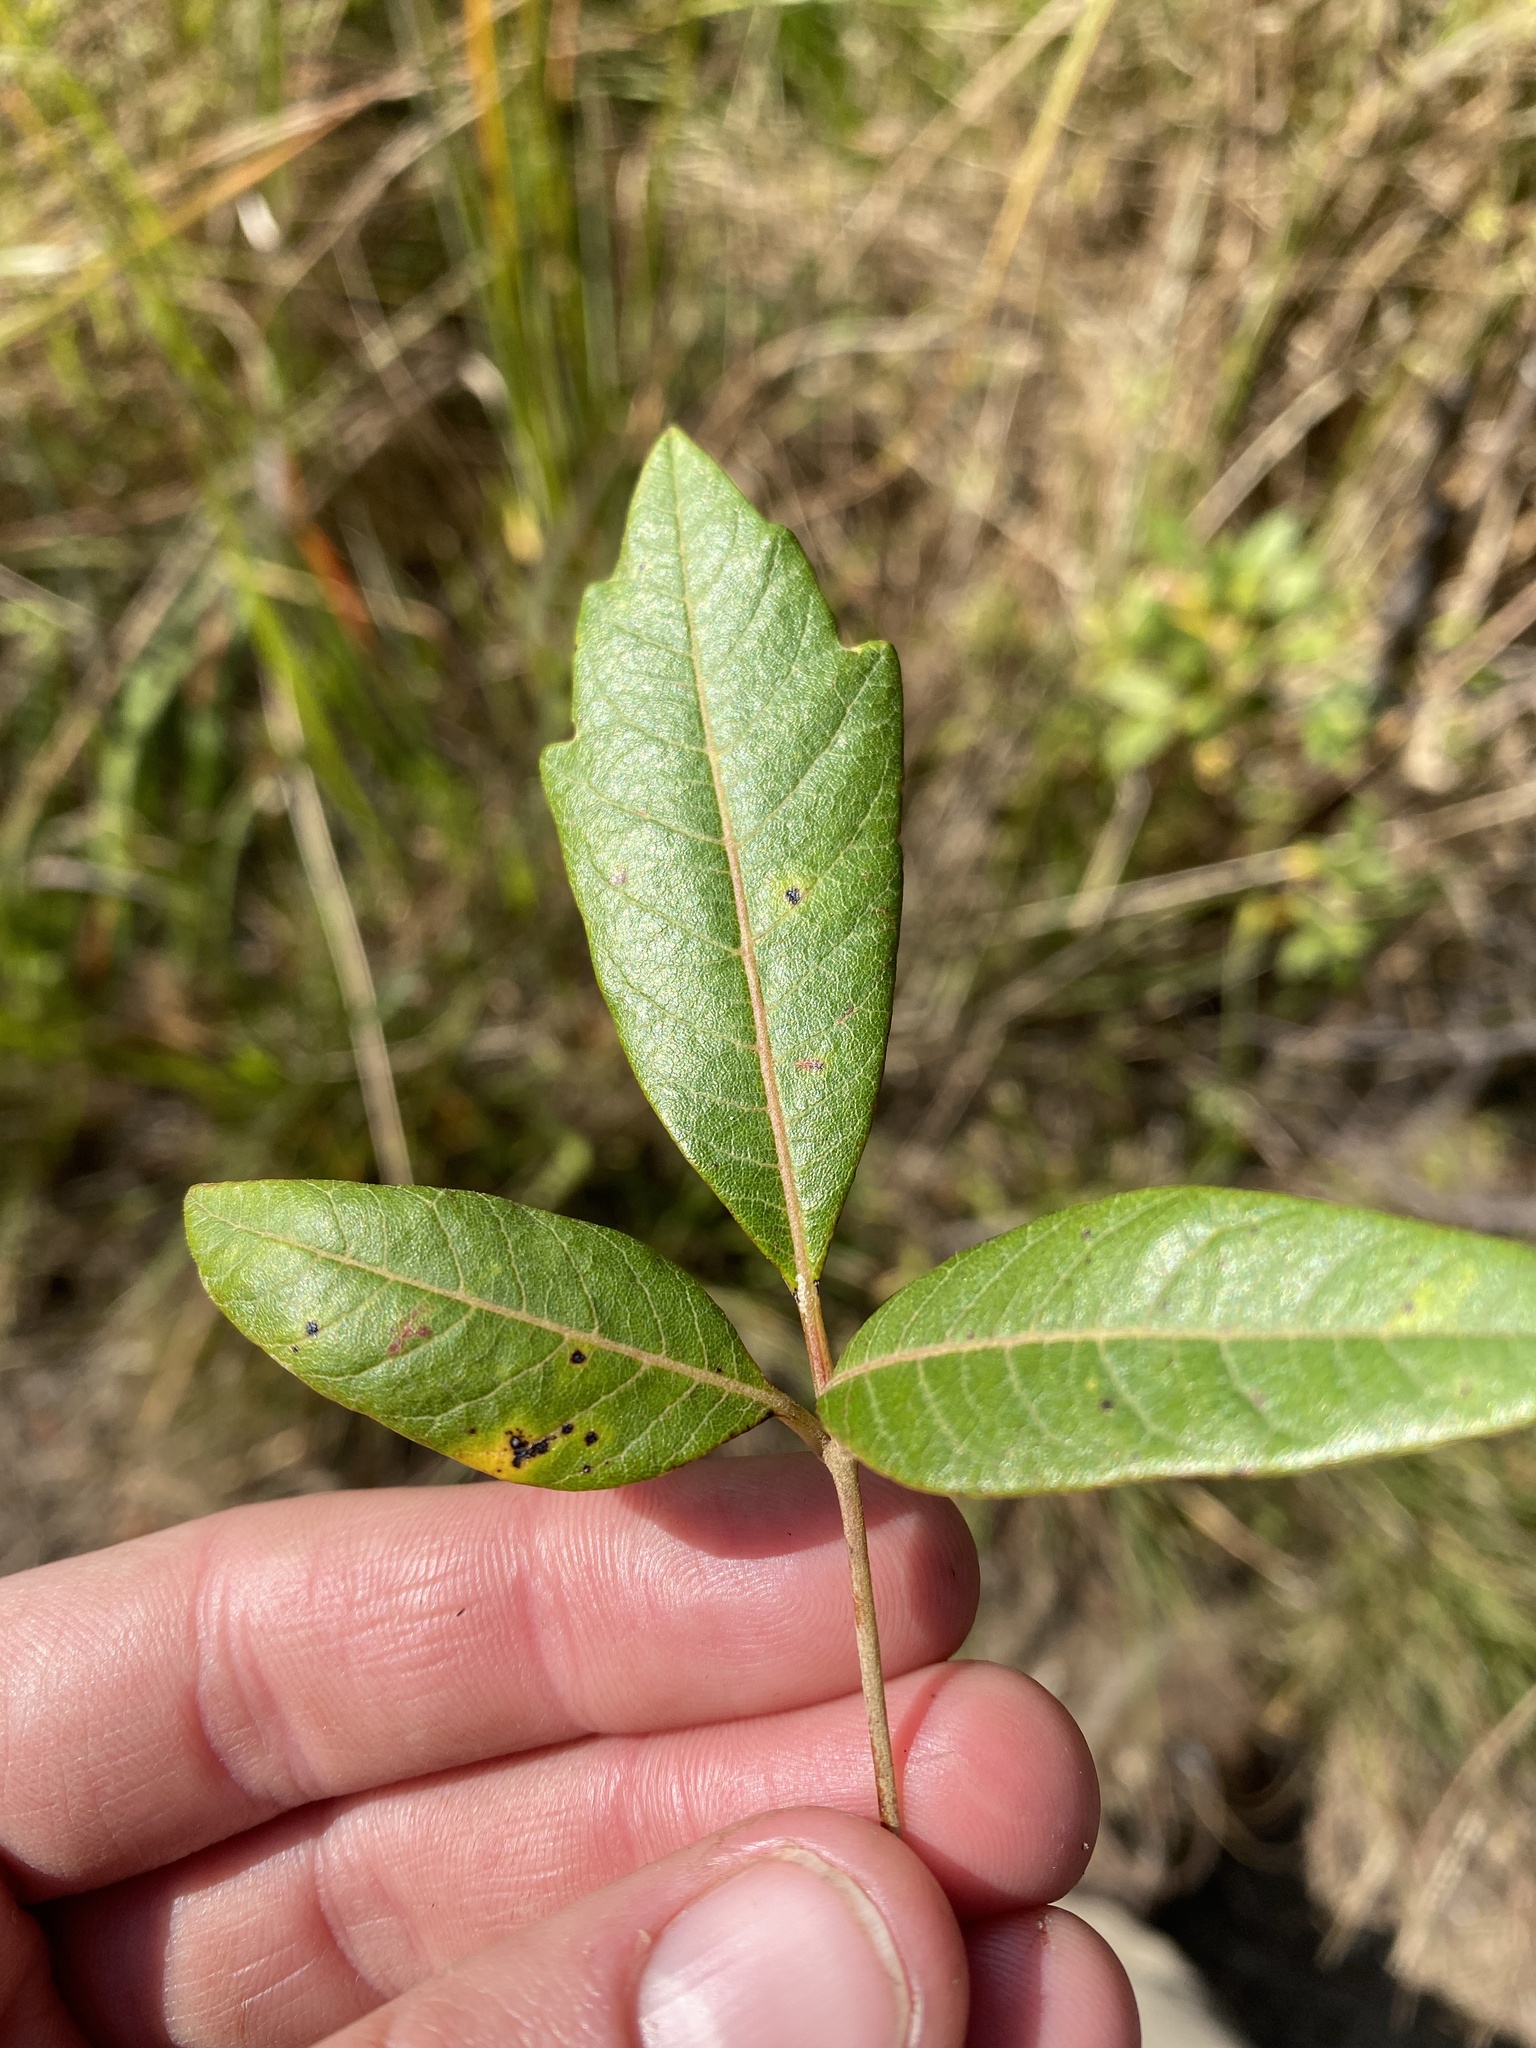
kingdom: Plantae
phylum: Tracheophyta
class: Magnoliopsida
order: Sapindales
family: Anacardiaceae
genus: Searsia
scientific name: Searsia tomentosa
